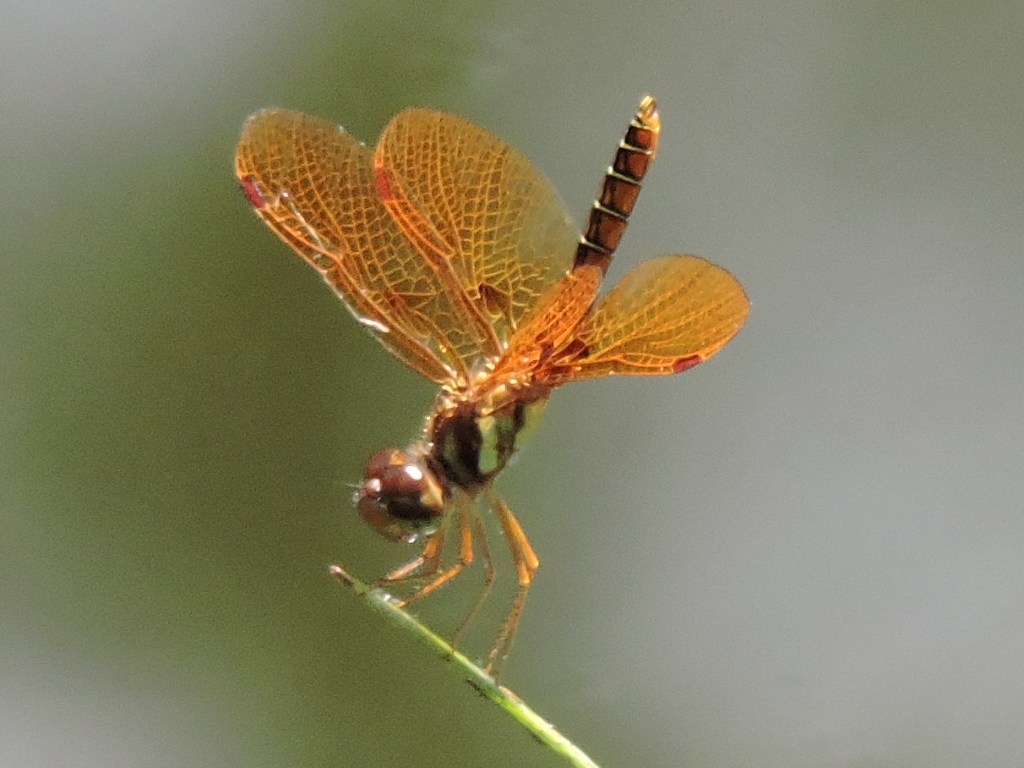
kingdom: Animalia
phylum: Arthropoda
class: Insecta
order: Odonata
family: Libellulidae
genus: Perithemis
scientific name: Perithemis tenera
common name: Eastern amberwing
